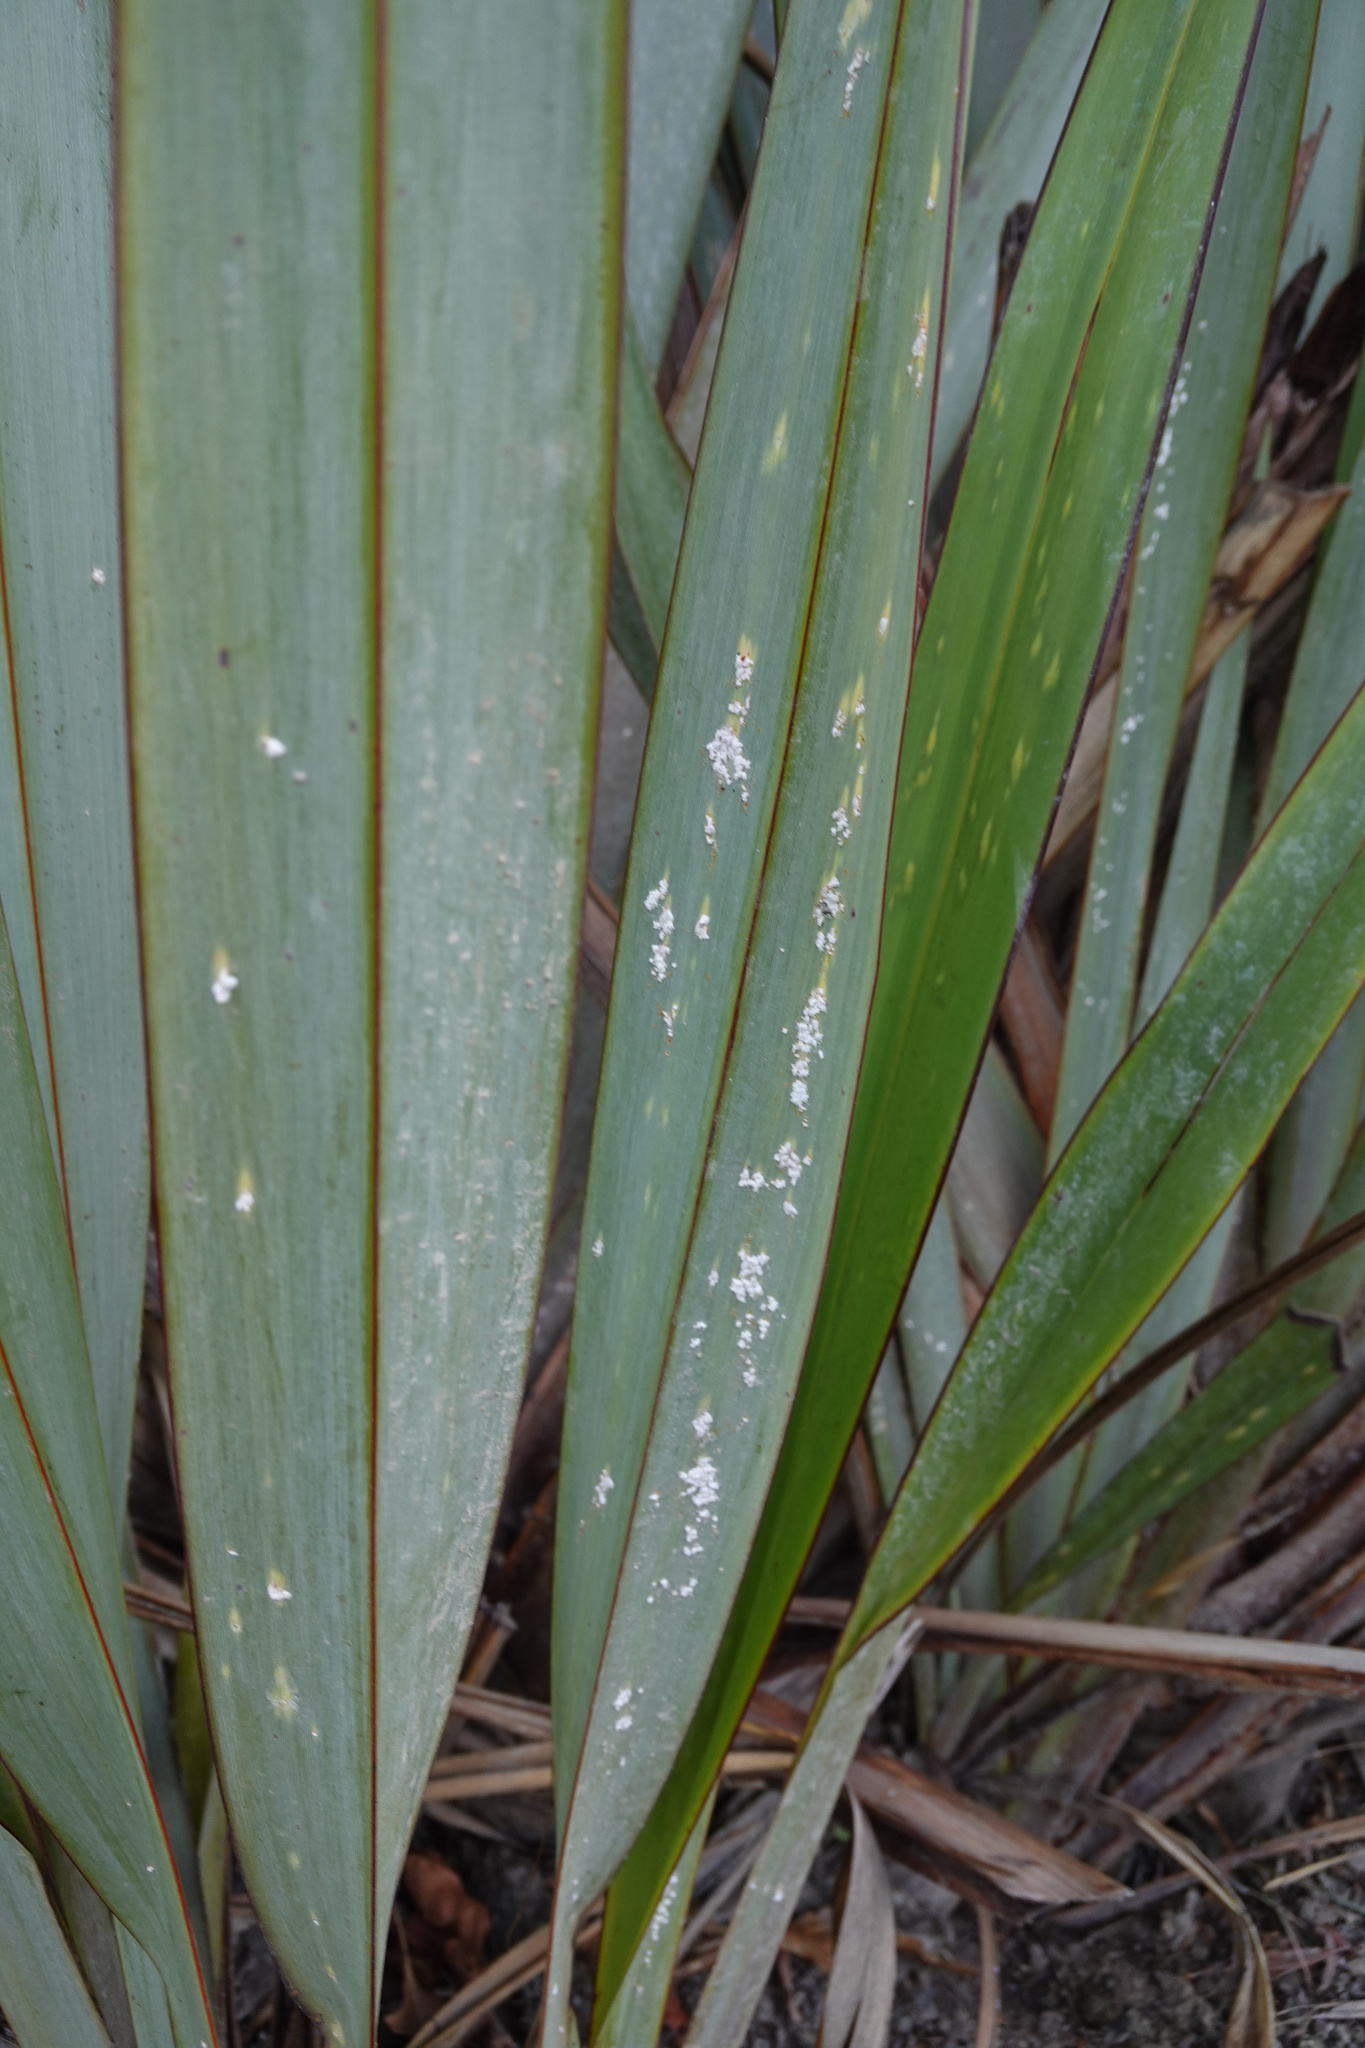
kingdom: Animalia
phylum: Arthropoda
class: Insecta
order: Hemiptera
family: Diaspididae
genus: Poliaspis
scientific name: Poliaspis floccosa
